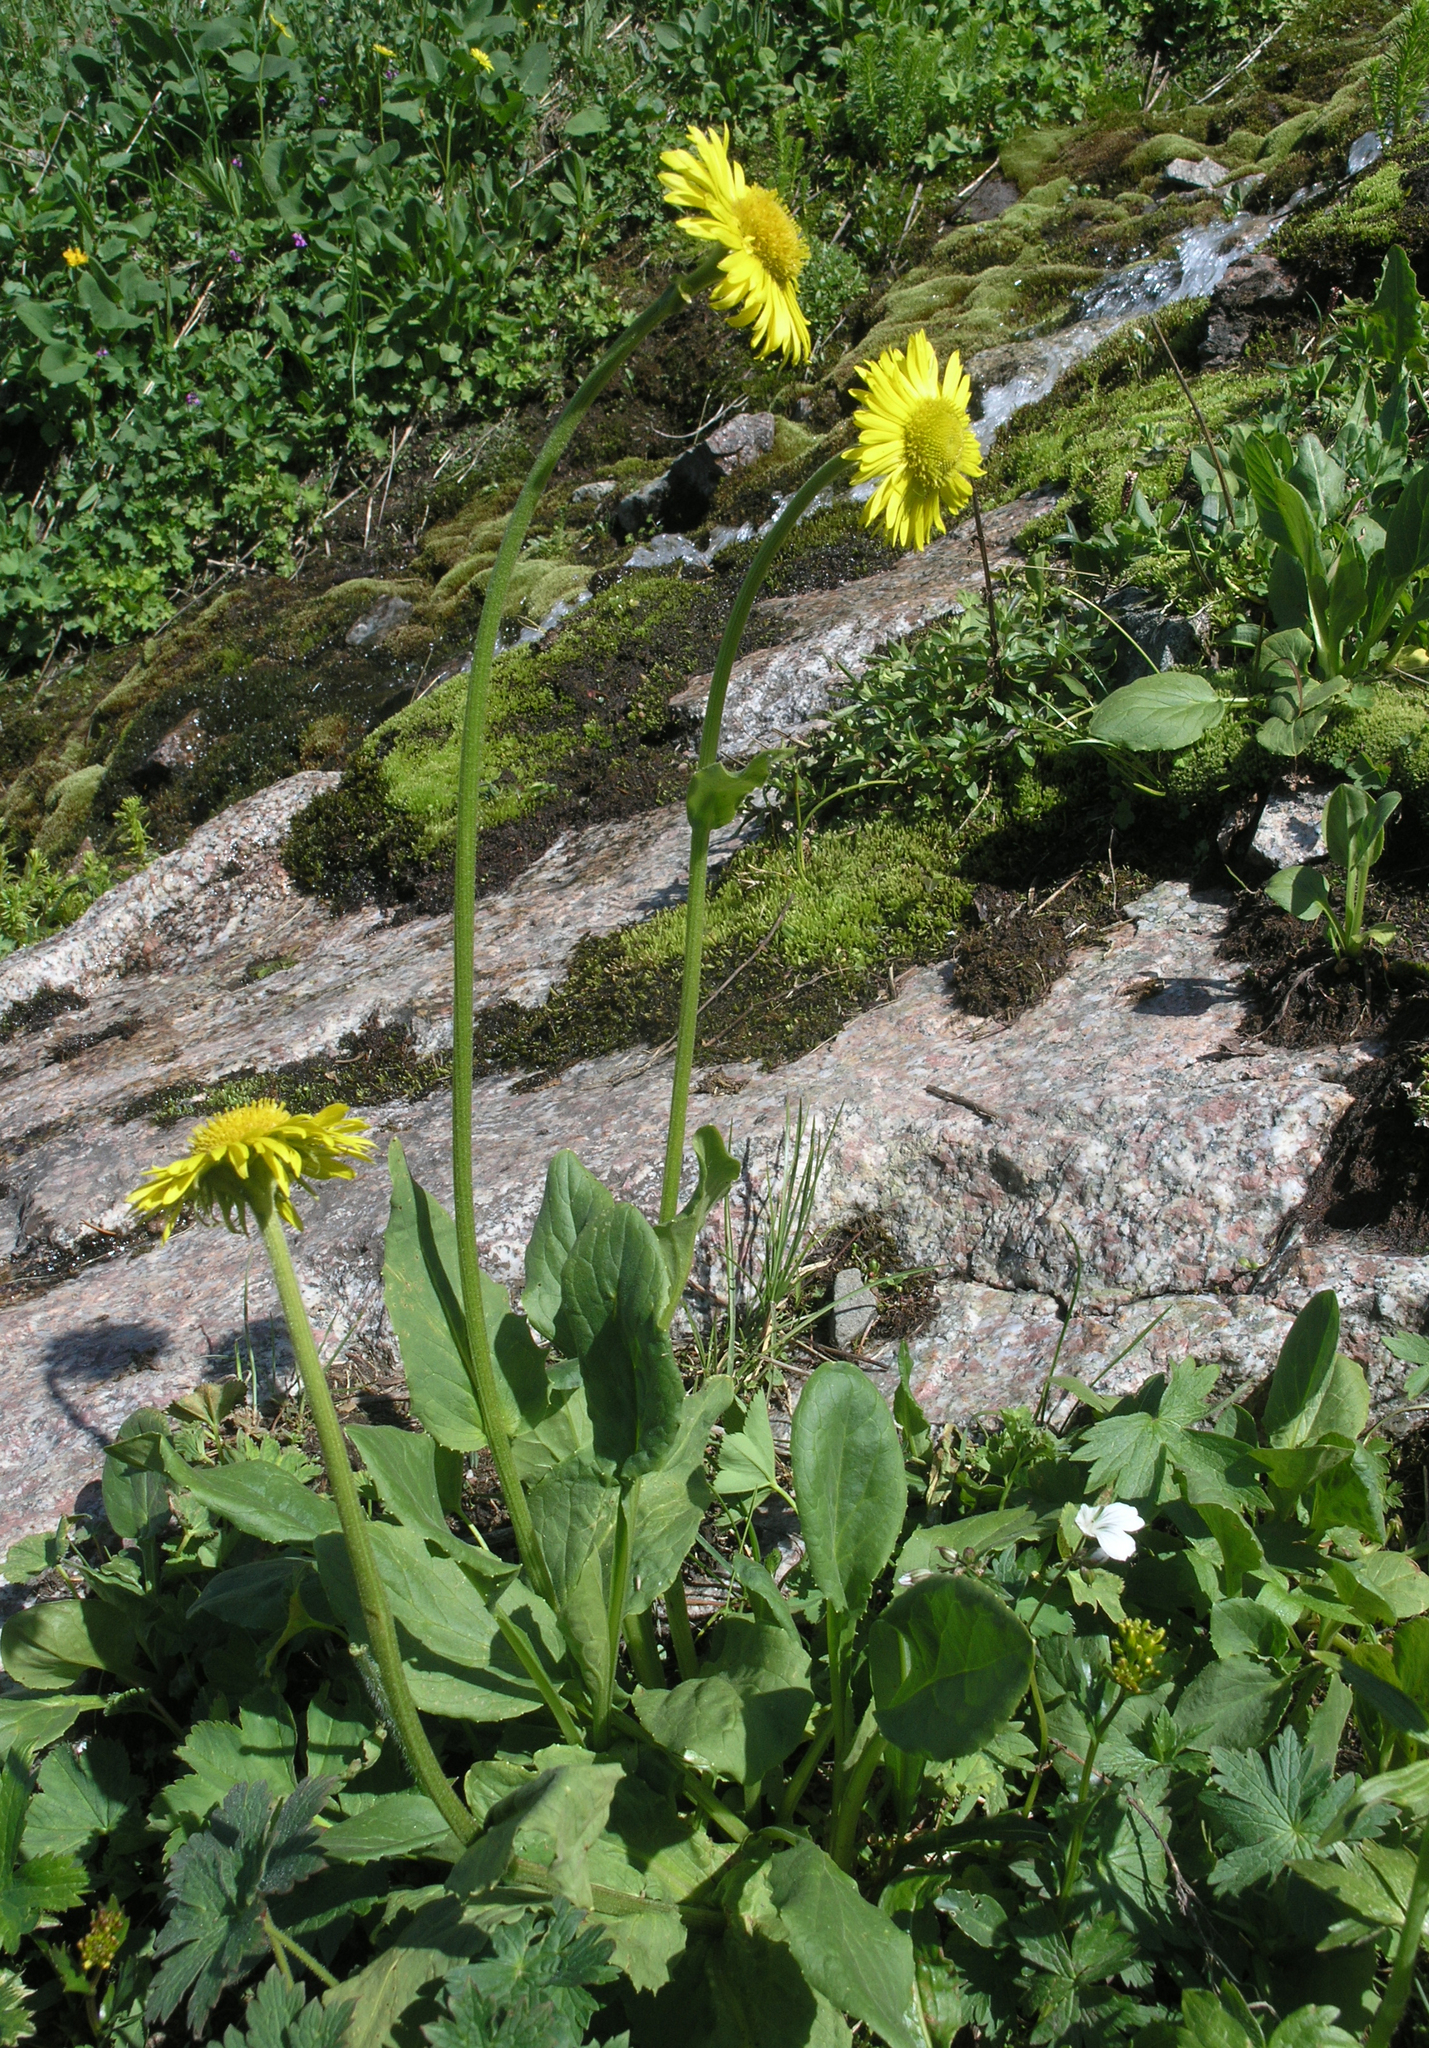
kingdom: Plantae
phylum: Tracheophyta
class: Magnoliopsida
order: Asterales
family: Asteraceae
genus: Doronicum
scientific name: Doronicum turkestanicum
